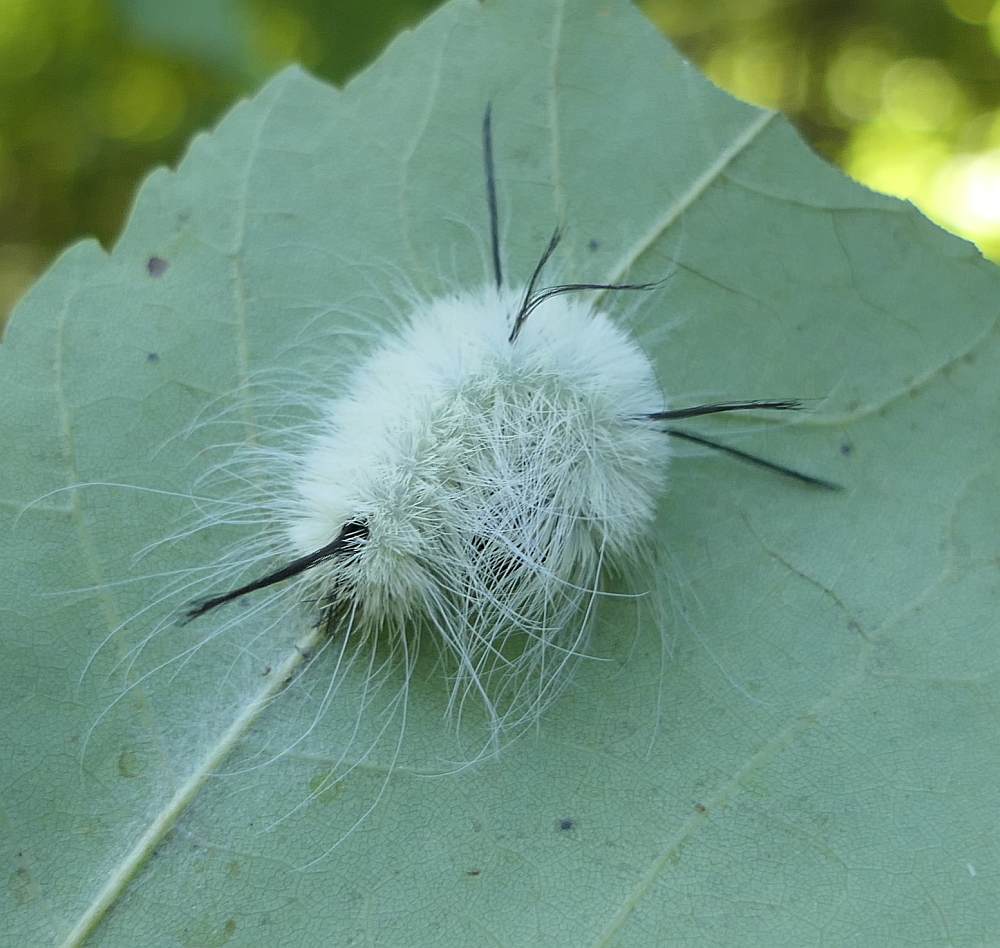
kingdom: Animalia
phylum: Arthropoda
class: Insecta
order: Lepidoptera
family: Noctuidae
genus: Acronicta
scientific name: Acronicta americana
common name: American dagger
